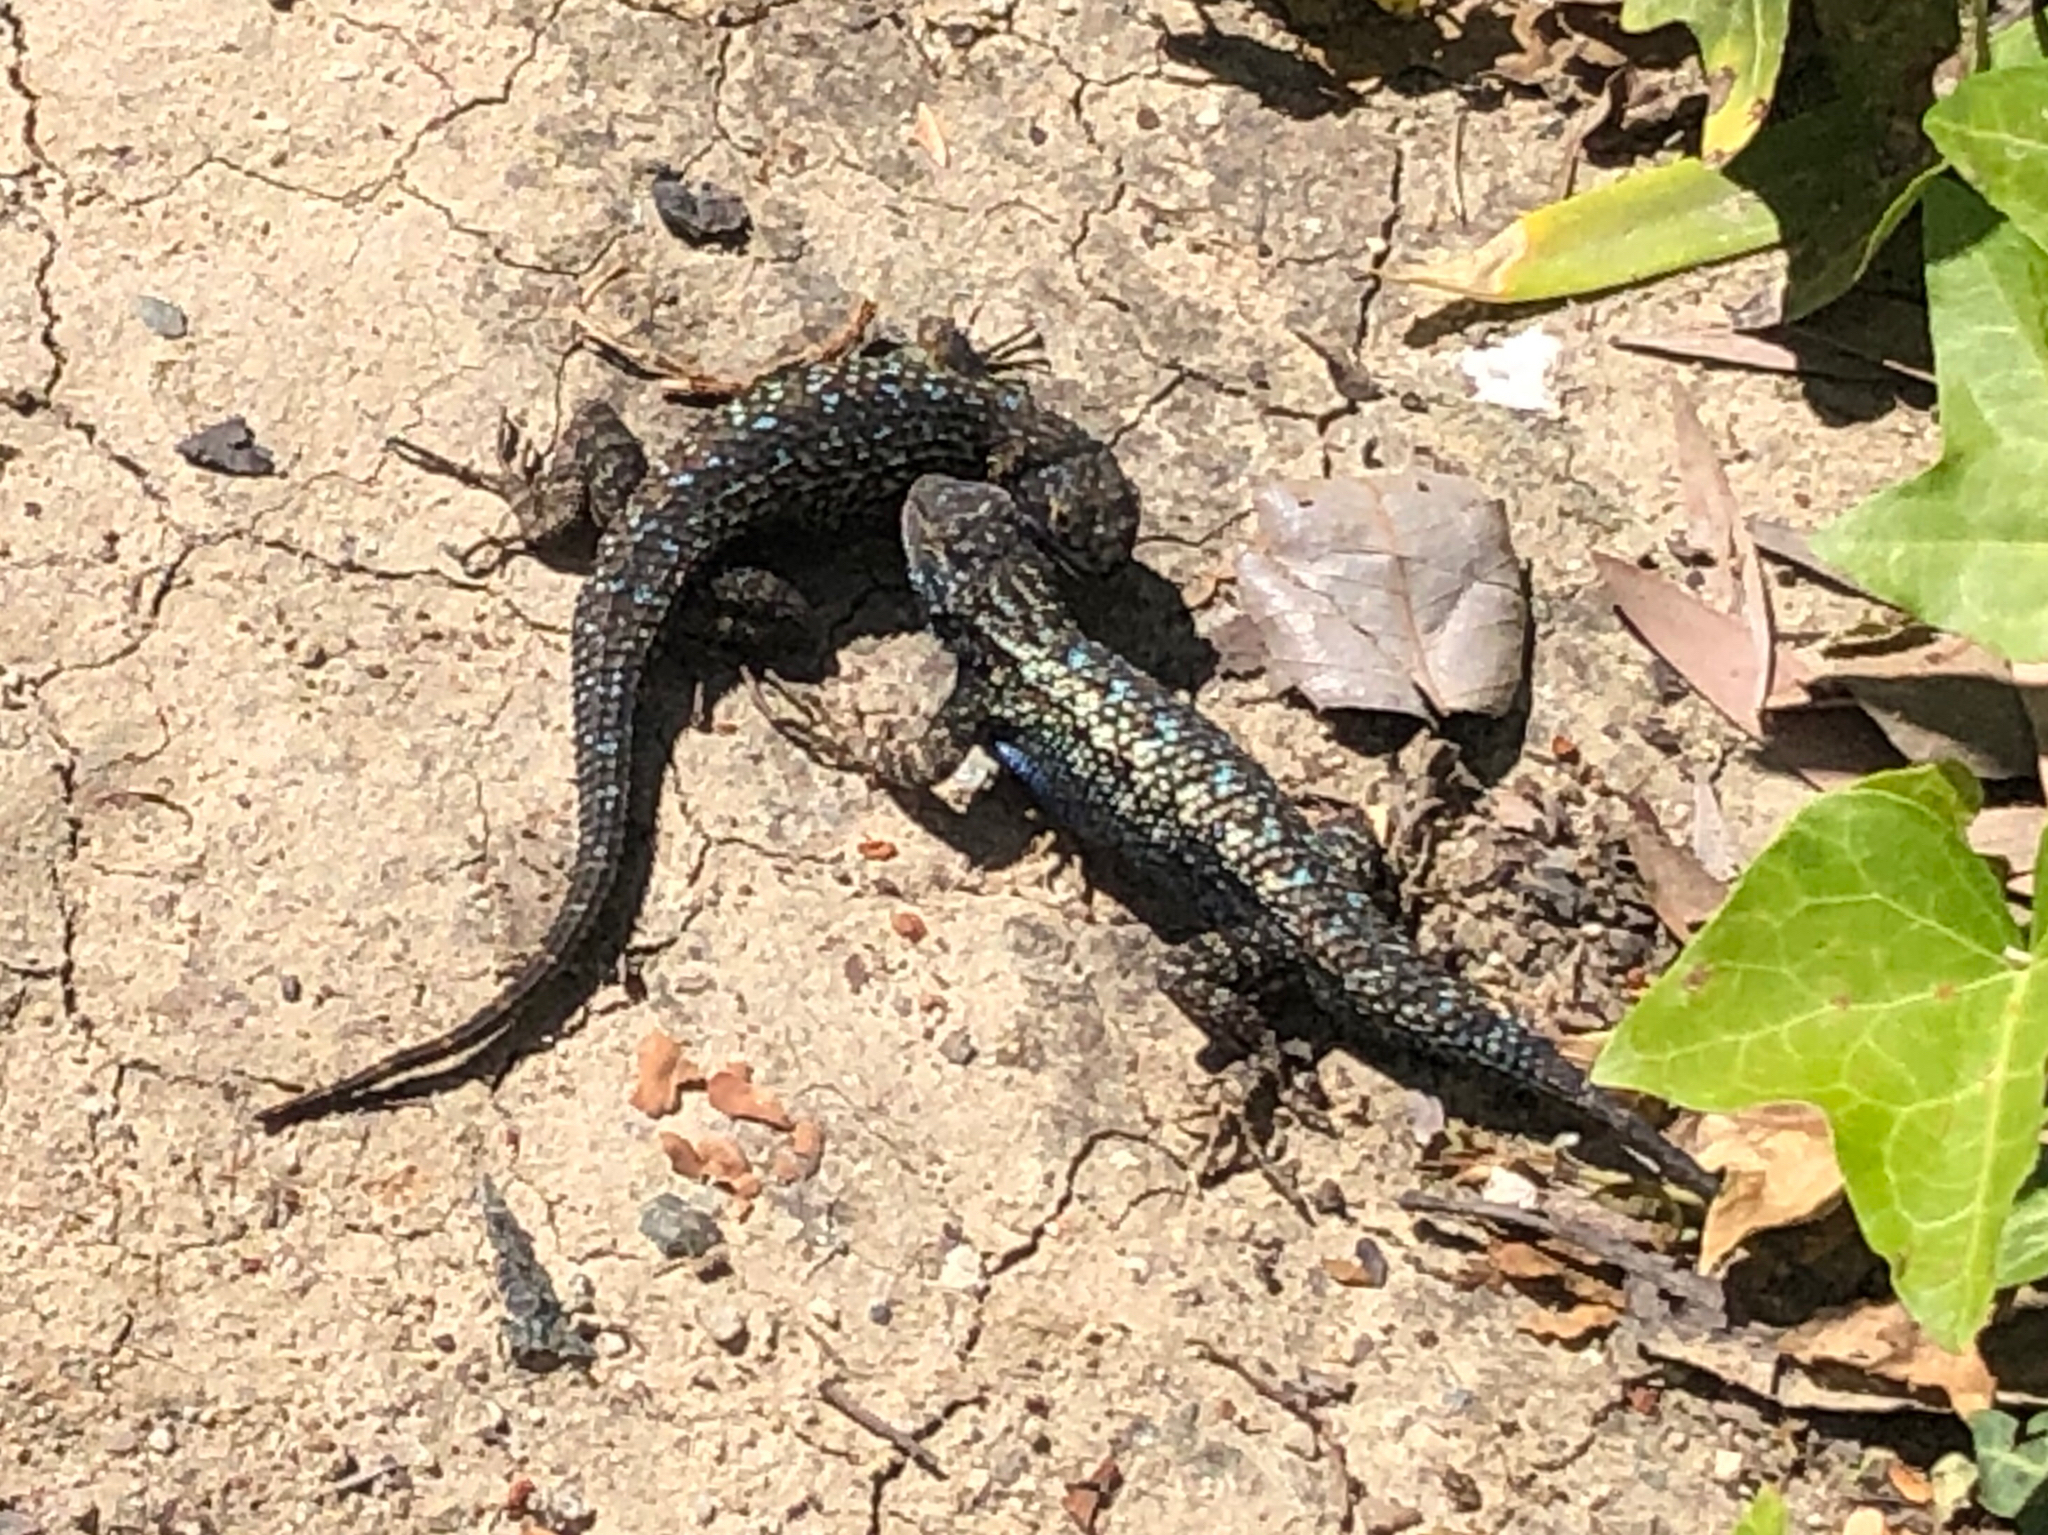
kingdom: Animalia
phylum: Chordata
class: Squamata
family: Phrynosomatidae
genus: Sceloporus
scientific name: Sceloporus occidentalis
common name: Western fence lizard
